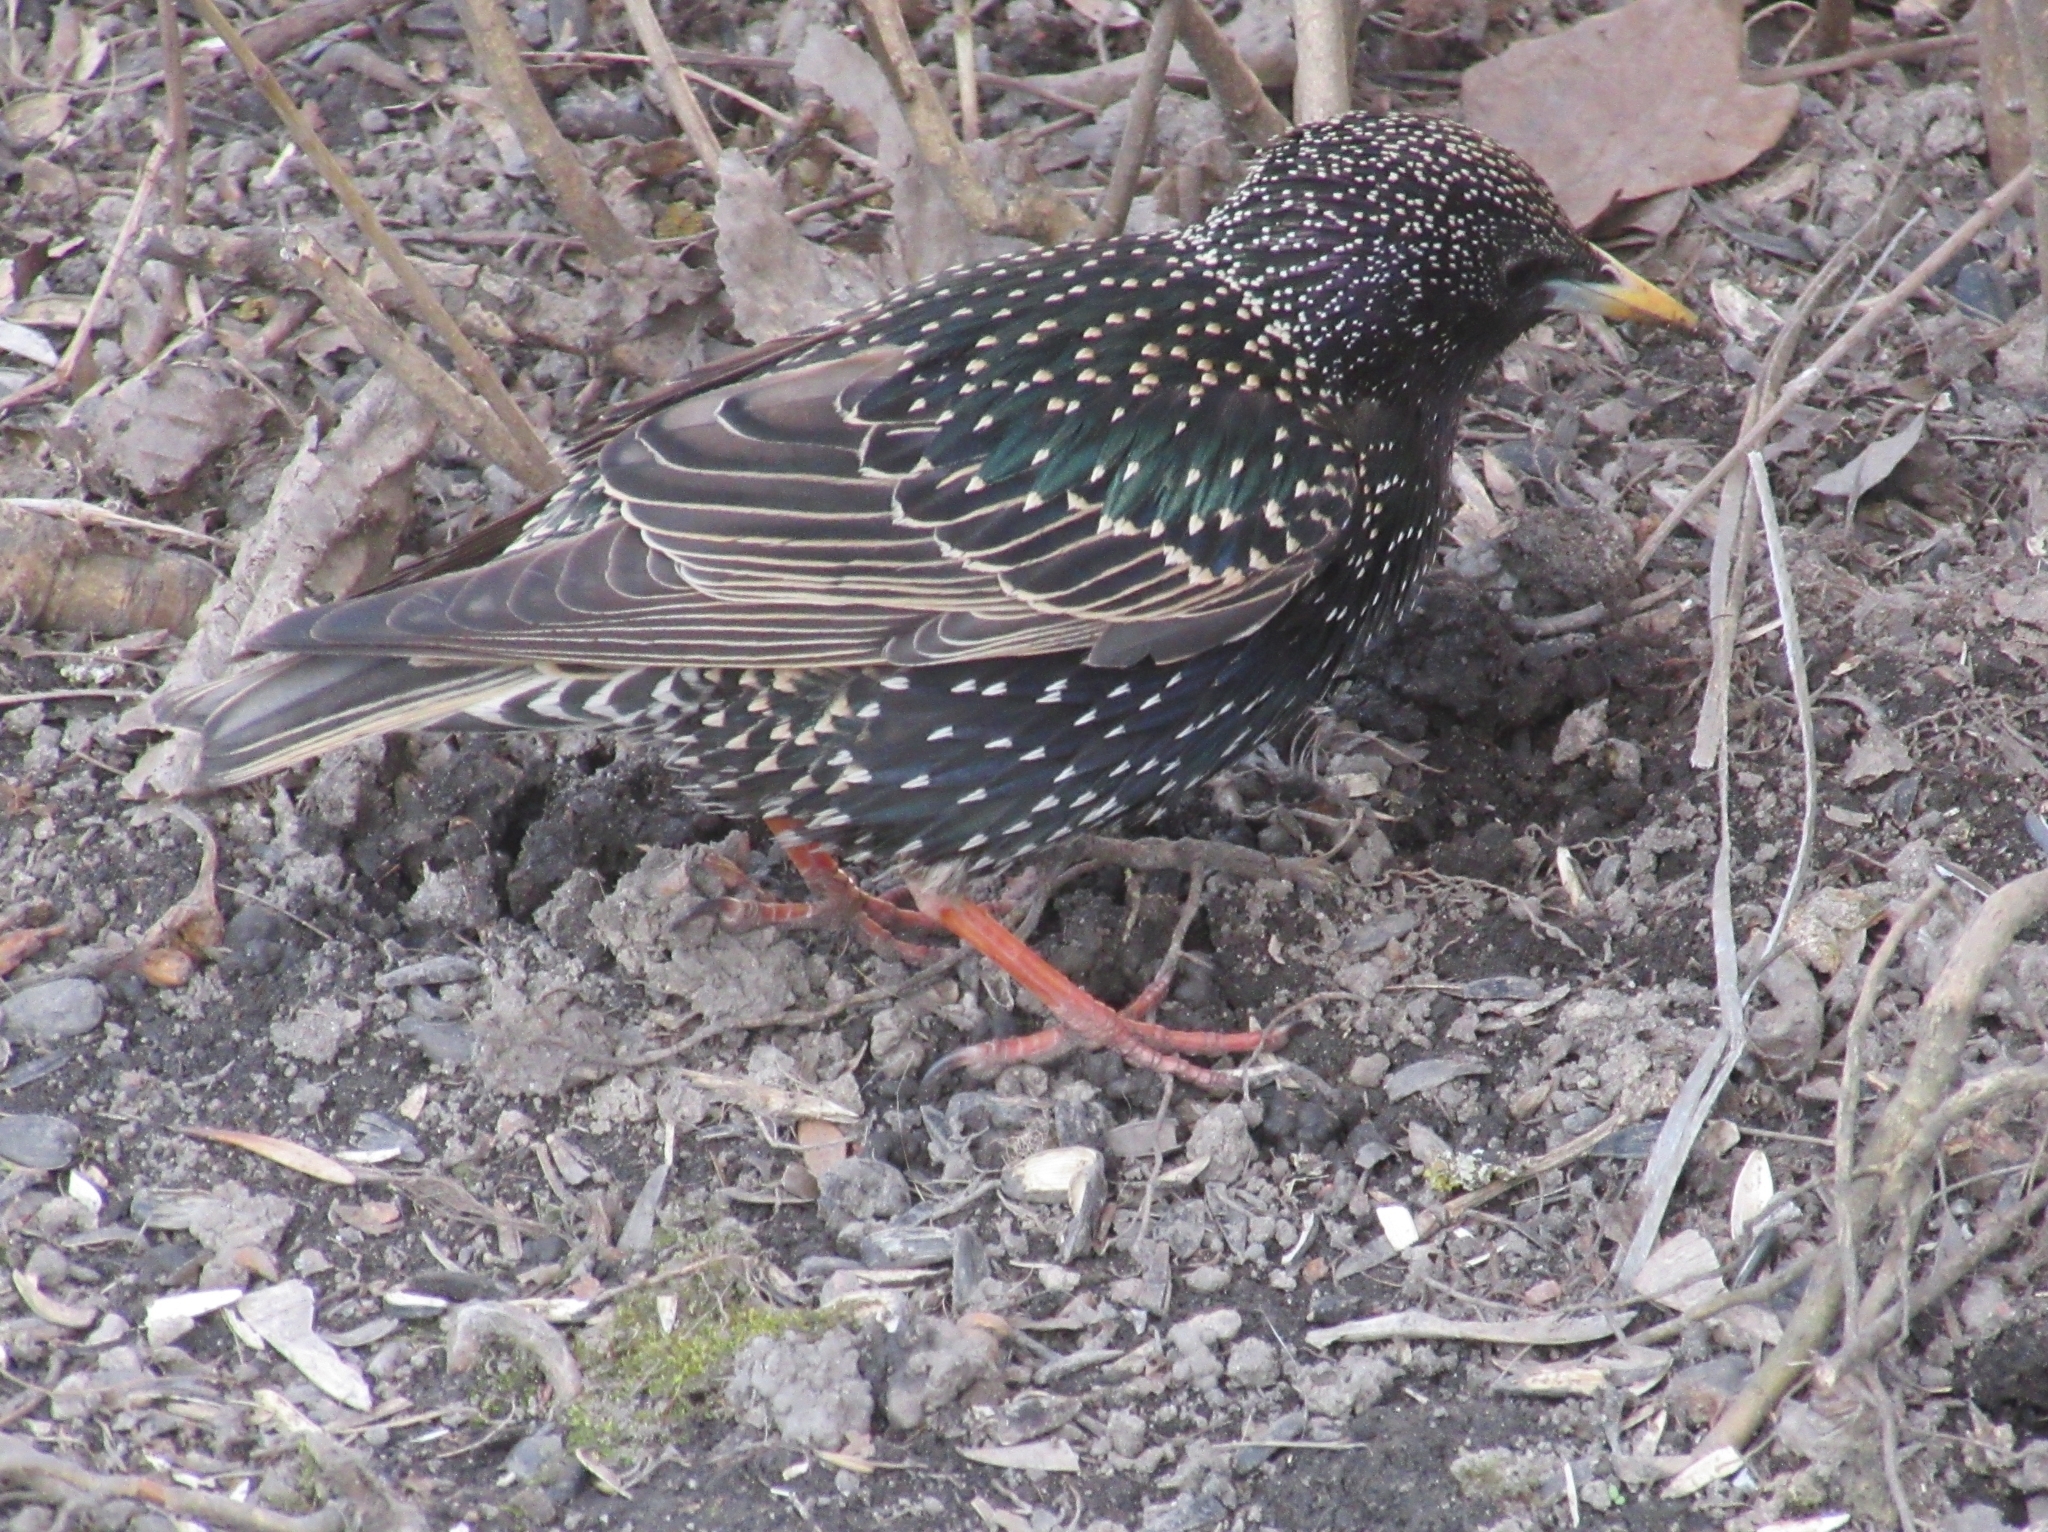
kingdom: Animalia
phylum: Chordata
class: Aves
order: Passeriformes
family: Sturnidae
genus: Sturnus
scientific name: Sturnus vulgaris
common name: Common starling
